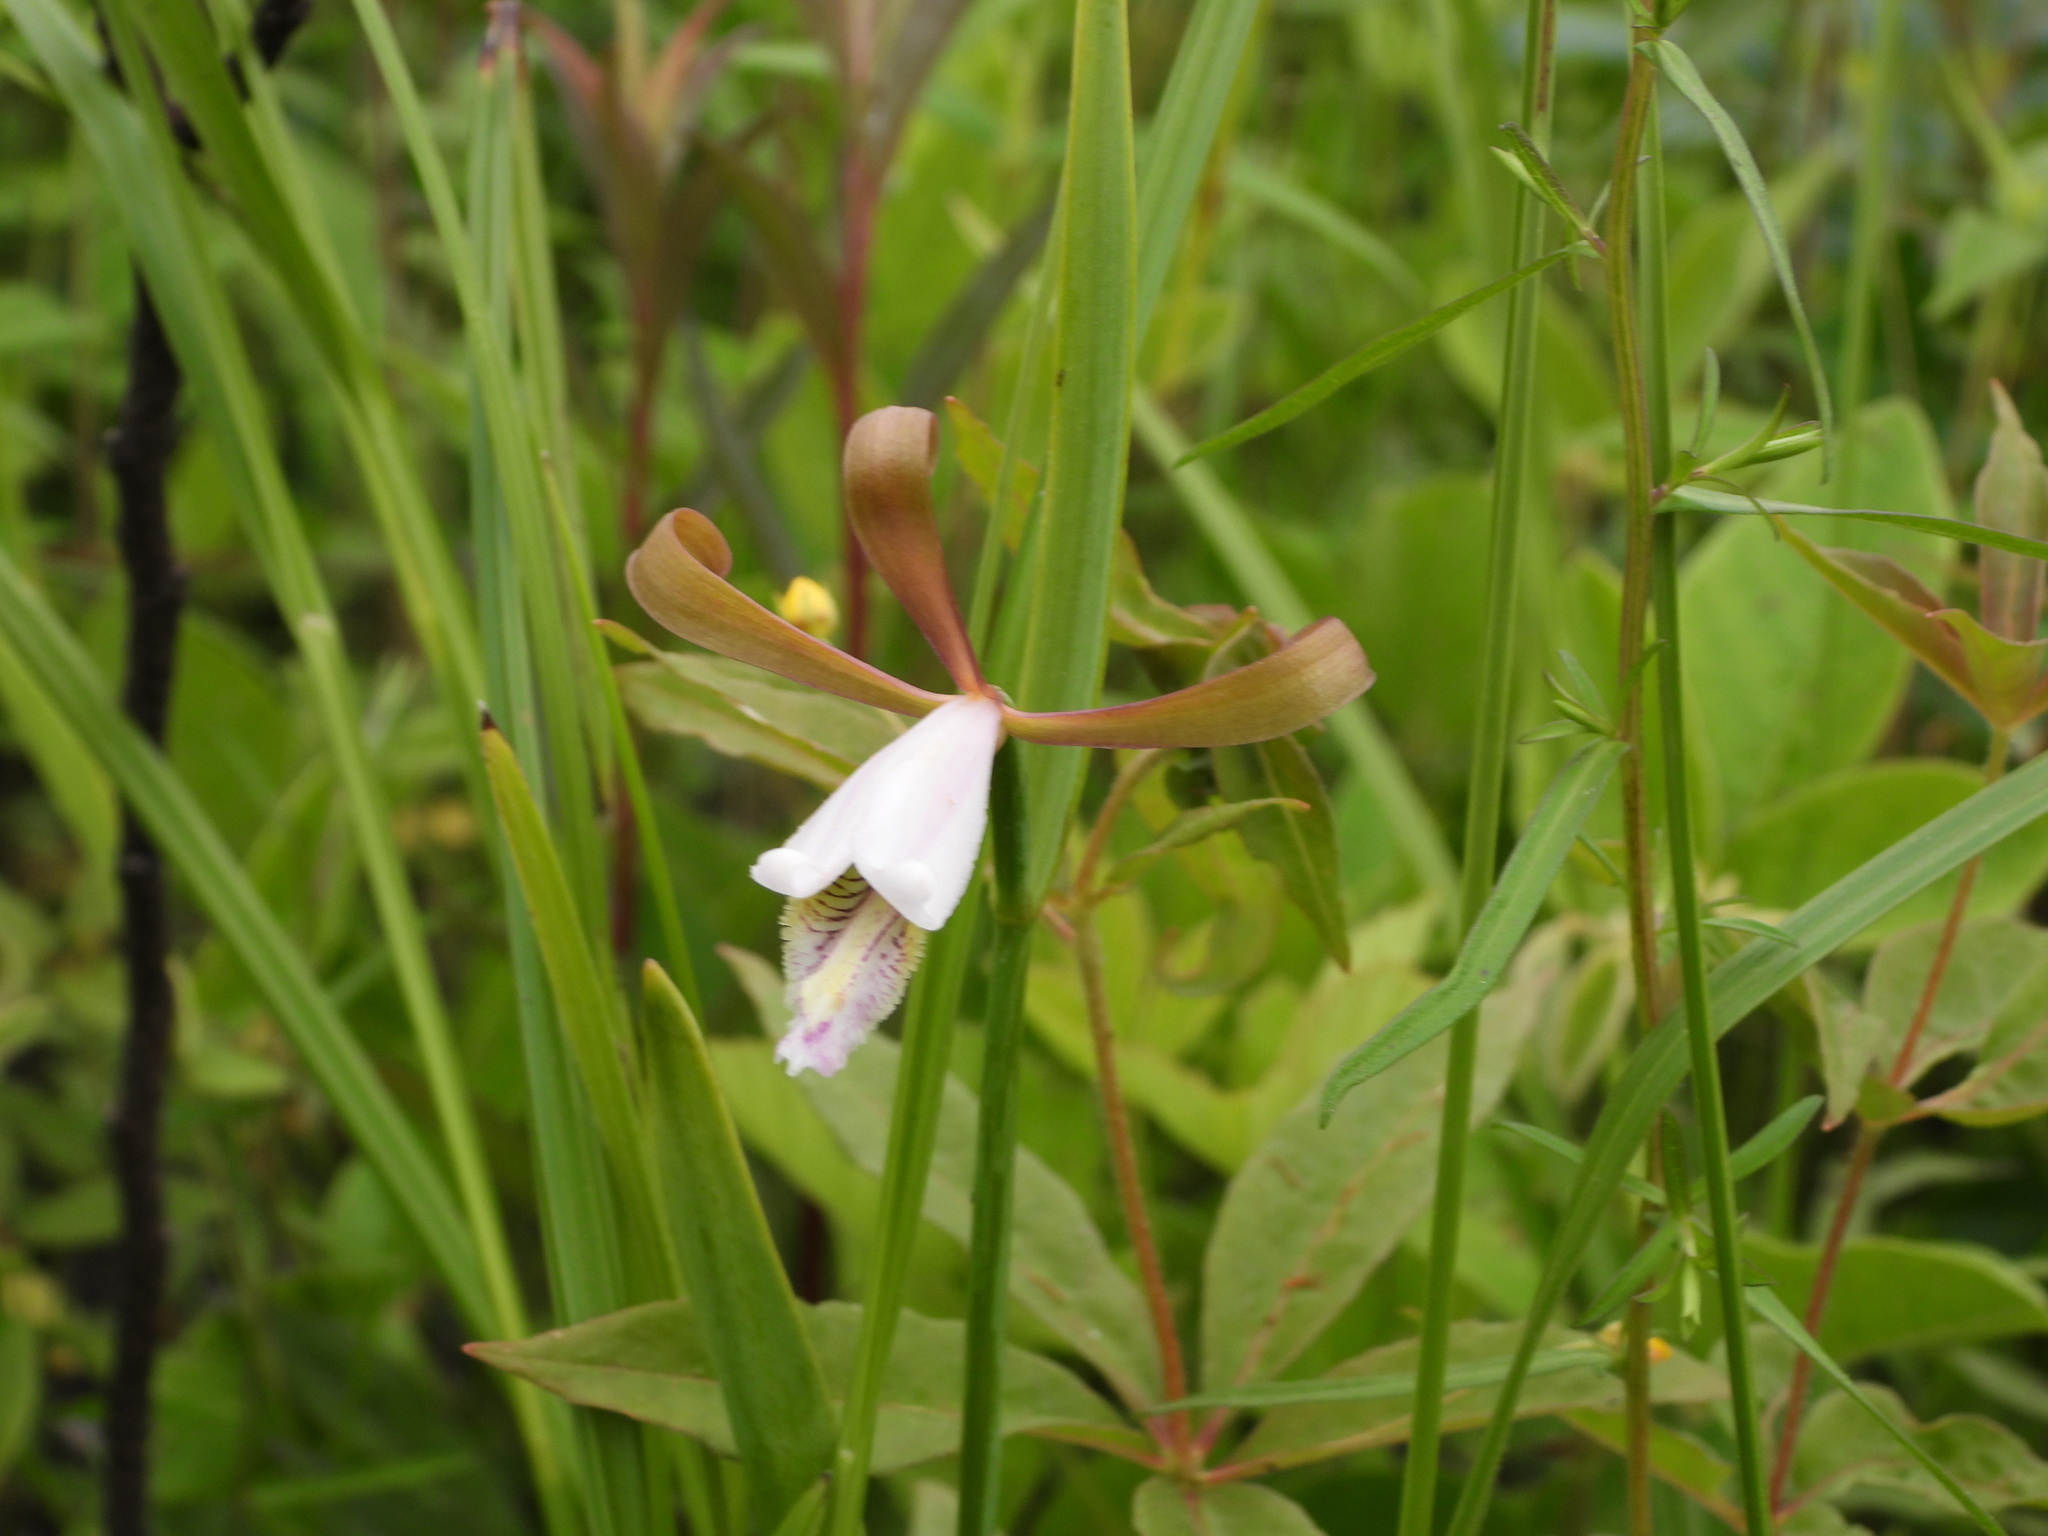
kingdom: Plantae
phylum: Tracheophyta
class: Liliopsida
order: Asparagales
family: Orchidaceae
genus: Cleistesiopsis
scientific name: Cleistesiopsis bifaria
